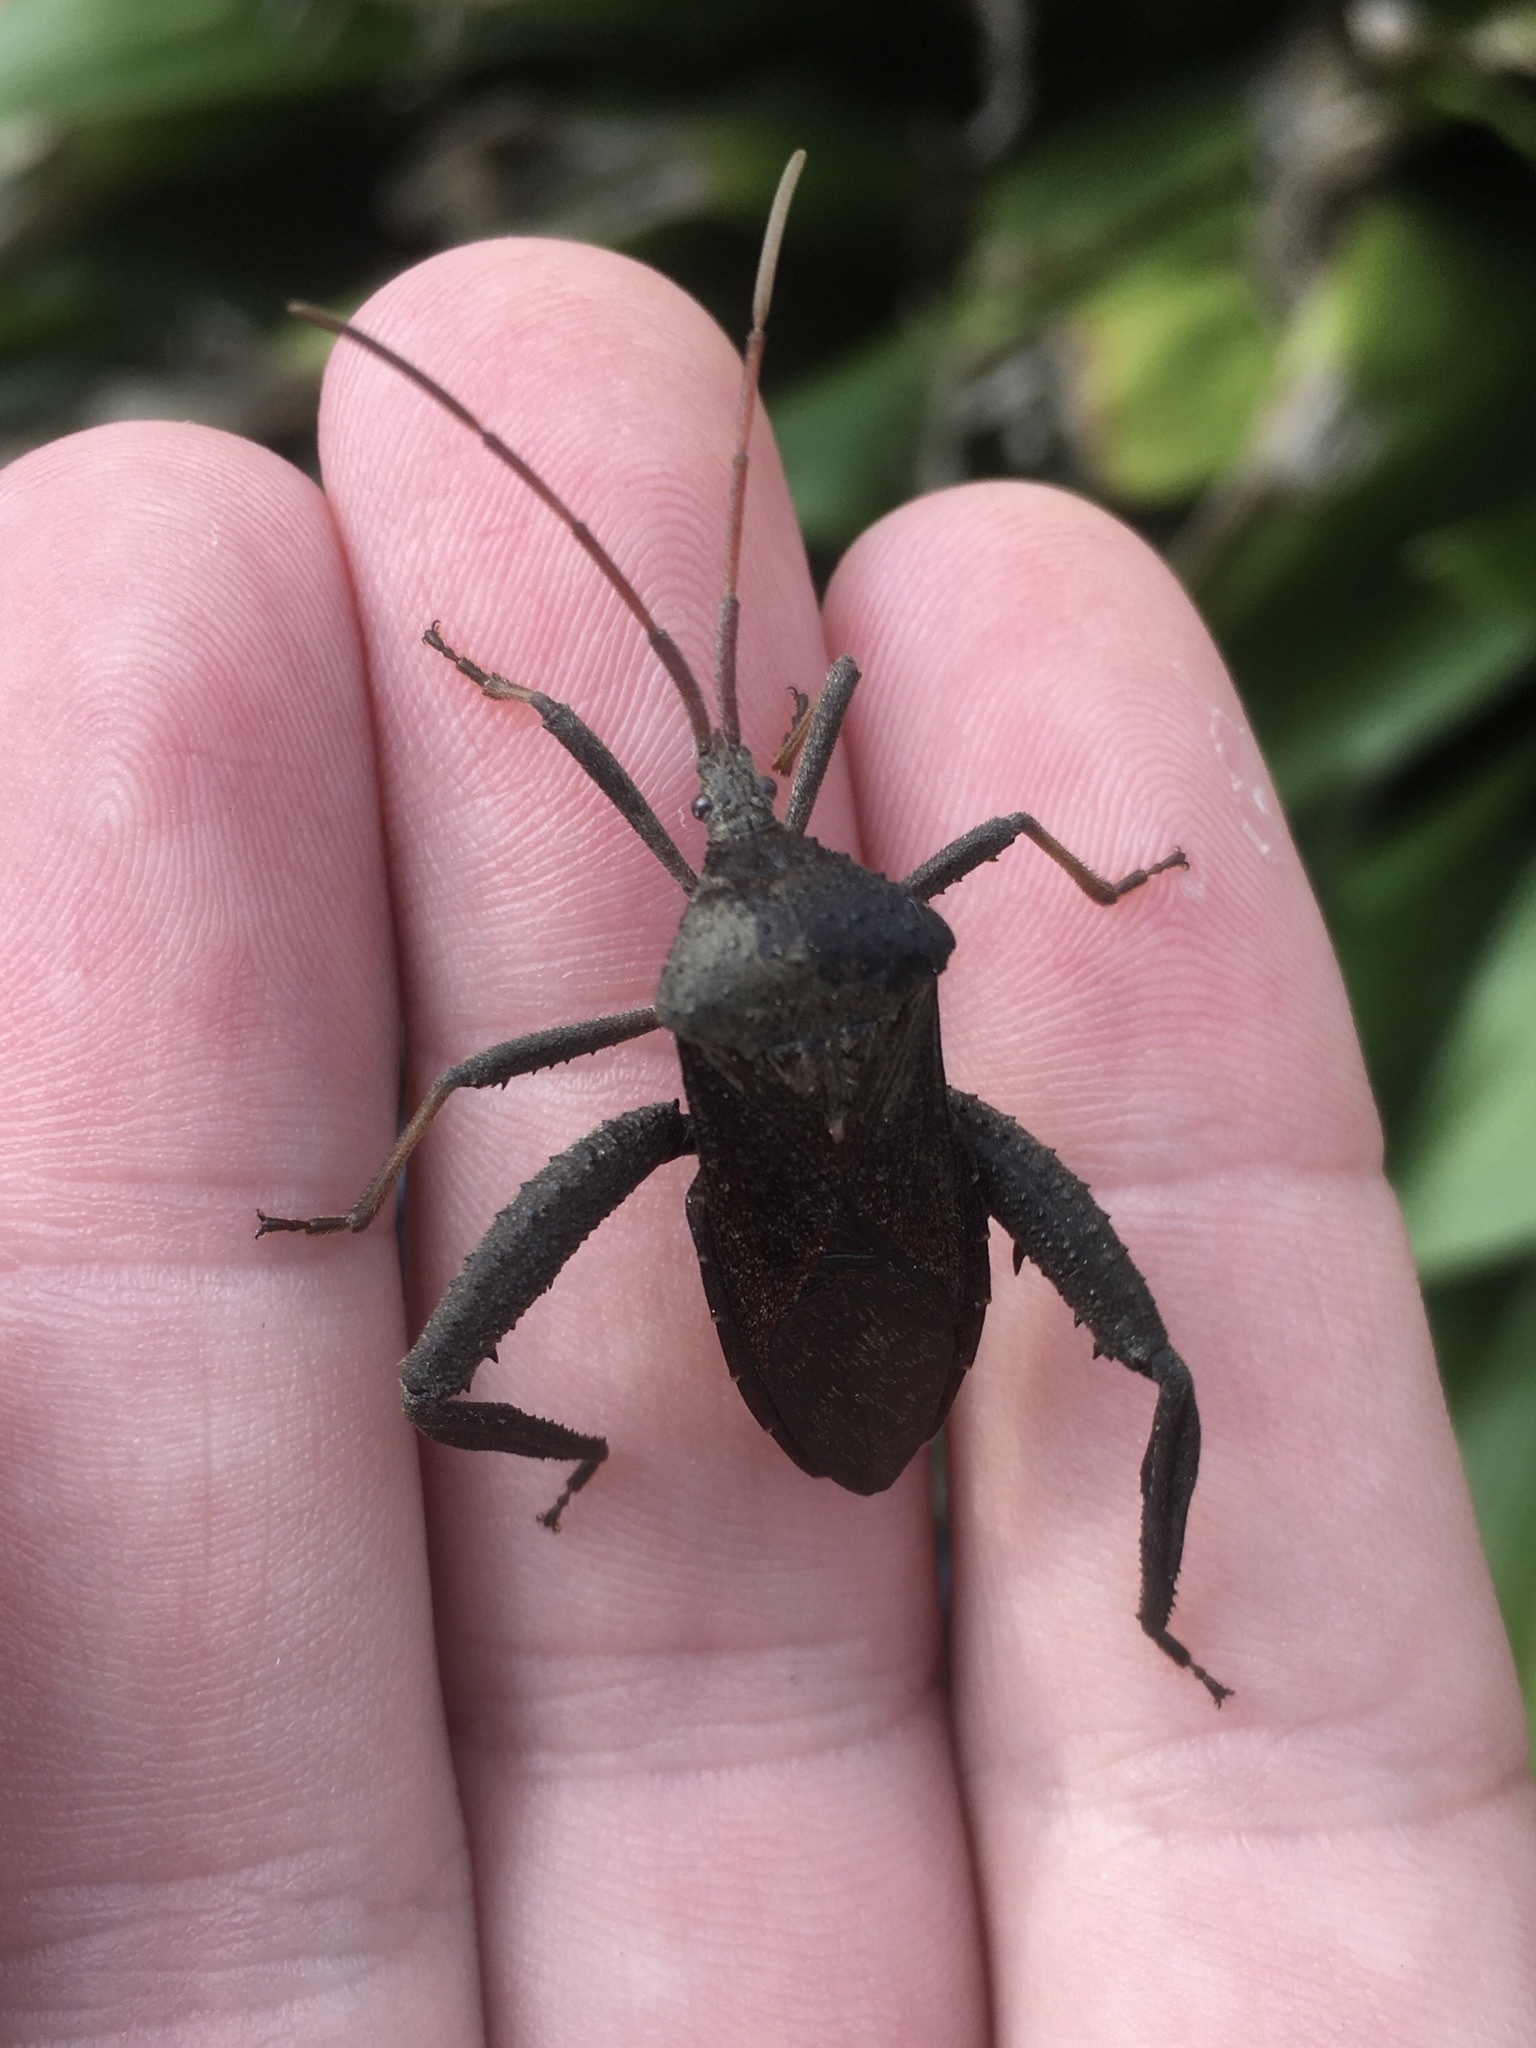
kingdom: Animalia
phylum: Arthropoda
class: Insecta
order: Hemiptera
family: Coreidae
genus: Acanthocephala
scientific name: Acanthocephala femorata
